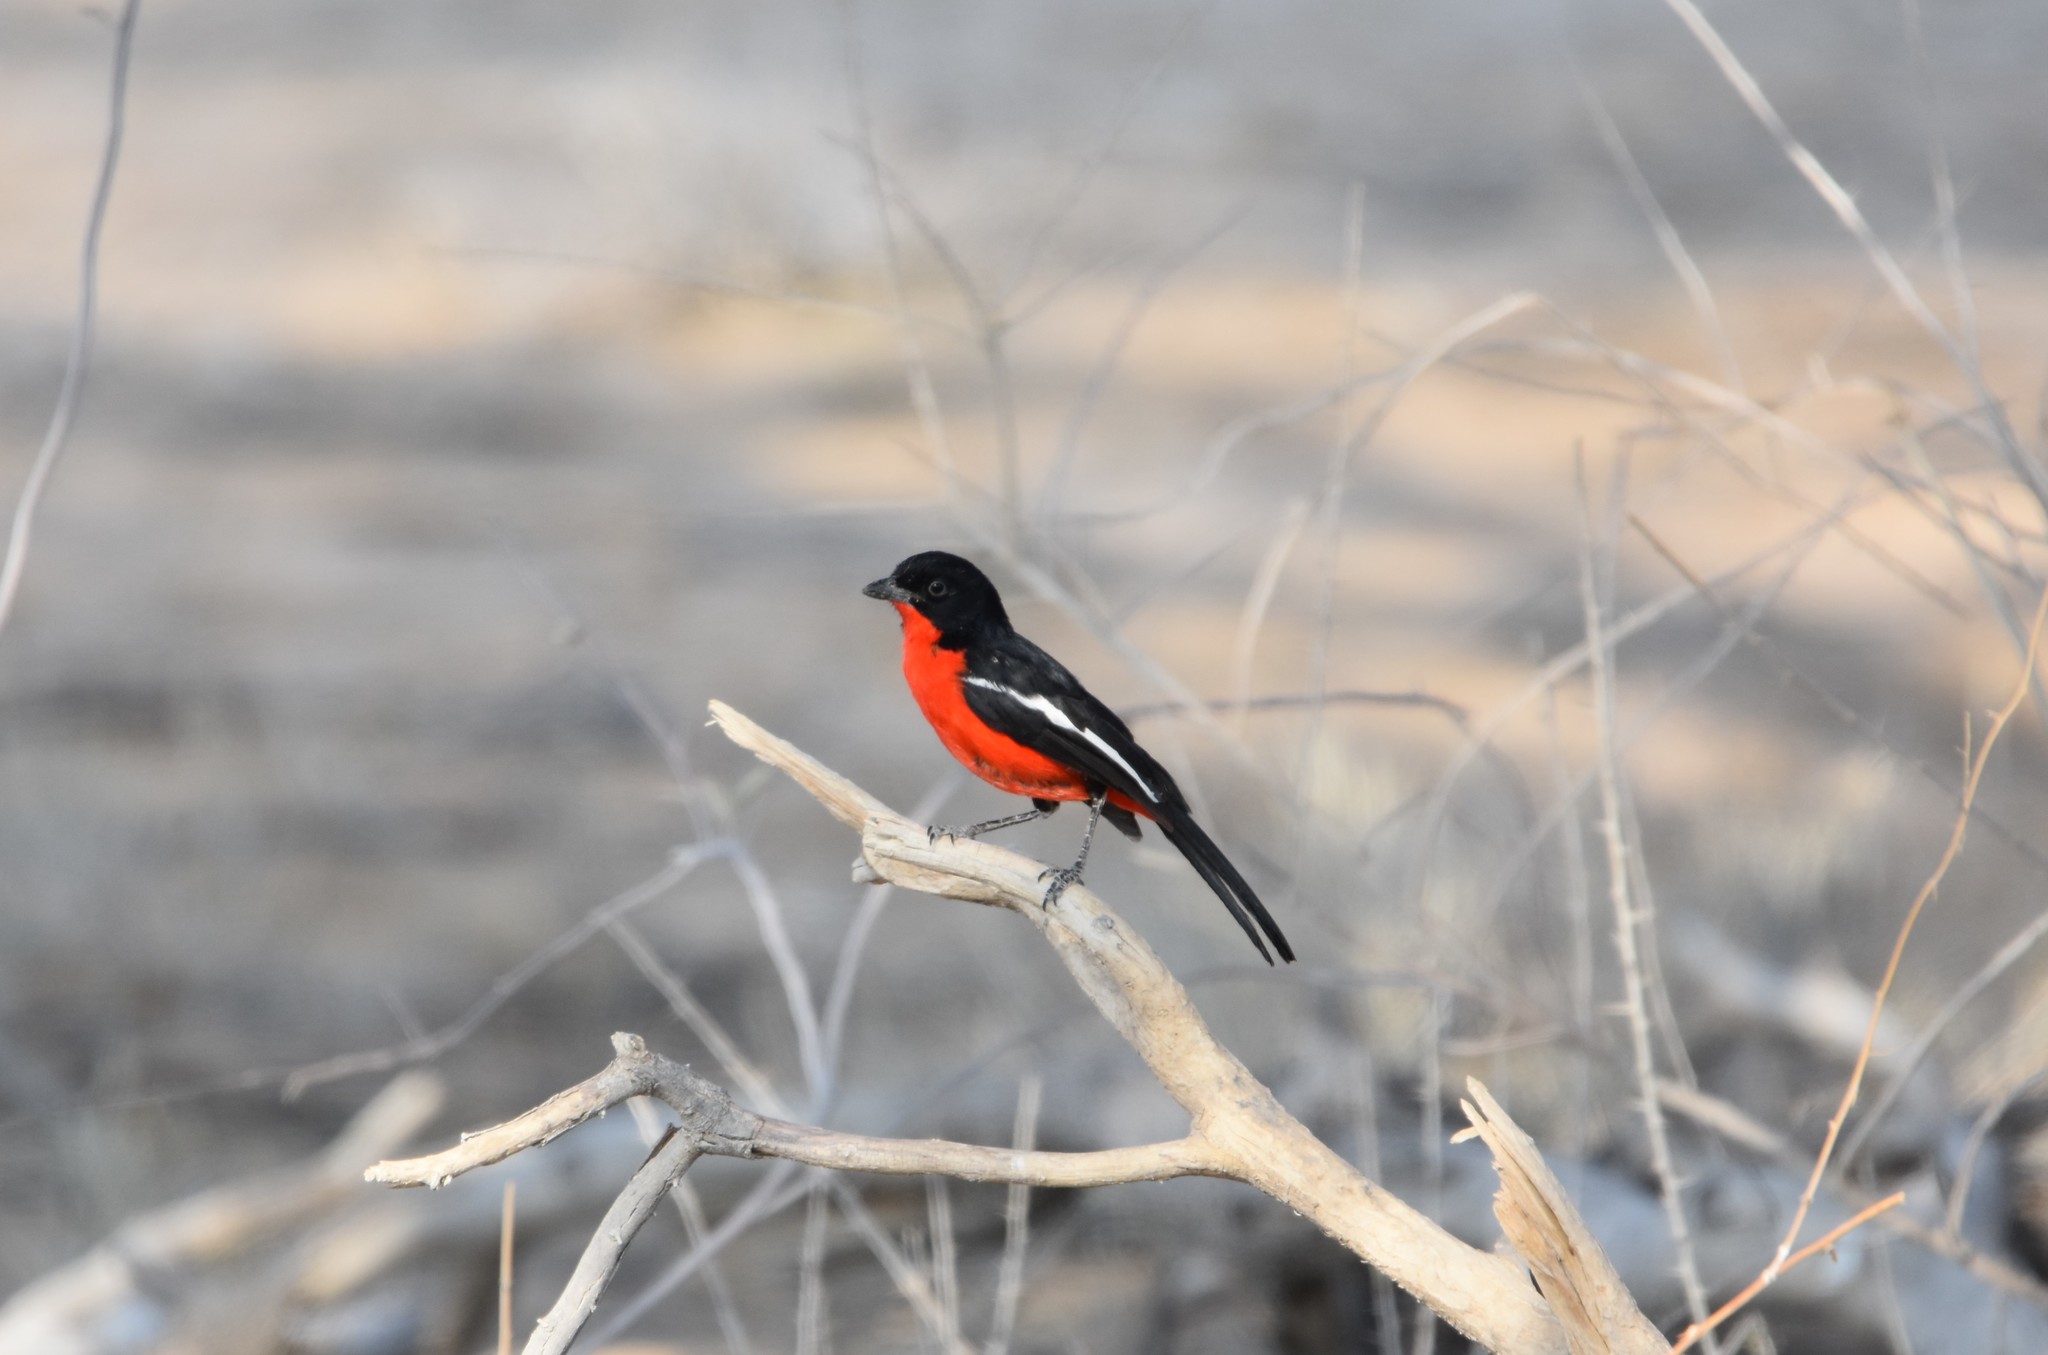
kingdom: Animalia
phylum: Chordata
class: Aves
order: Passeriformes
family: Malaconotidae
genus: Laniarius
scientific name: Laniarius atrococcineus
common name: Crimson-breasted shrike
